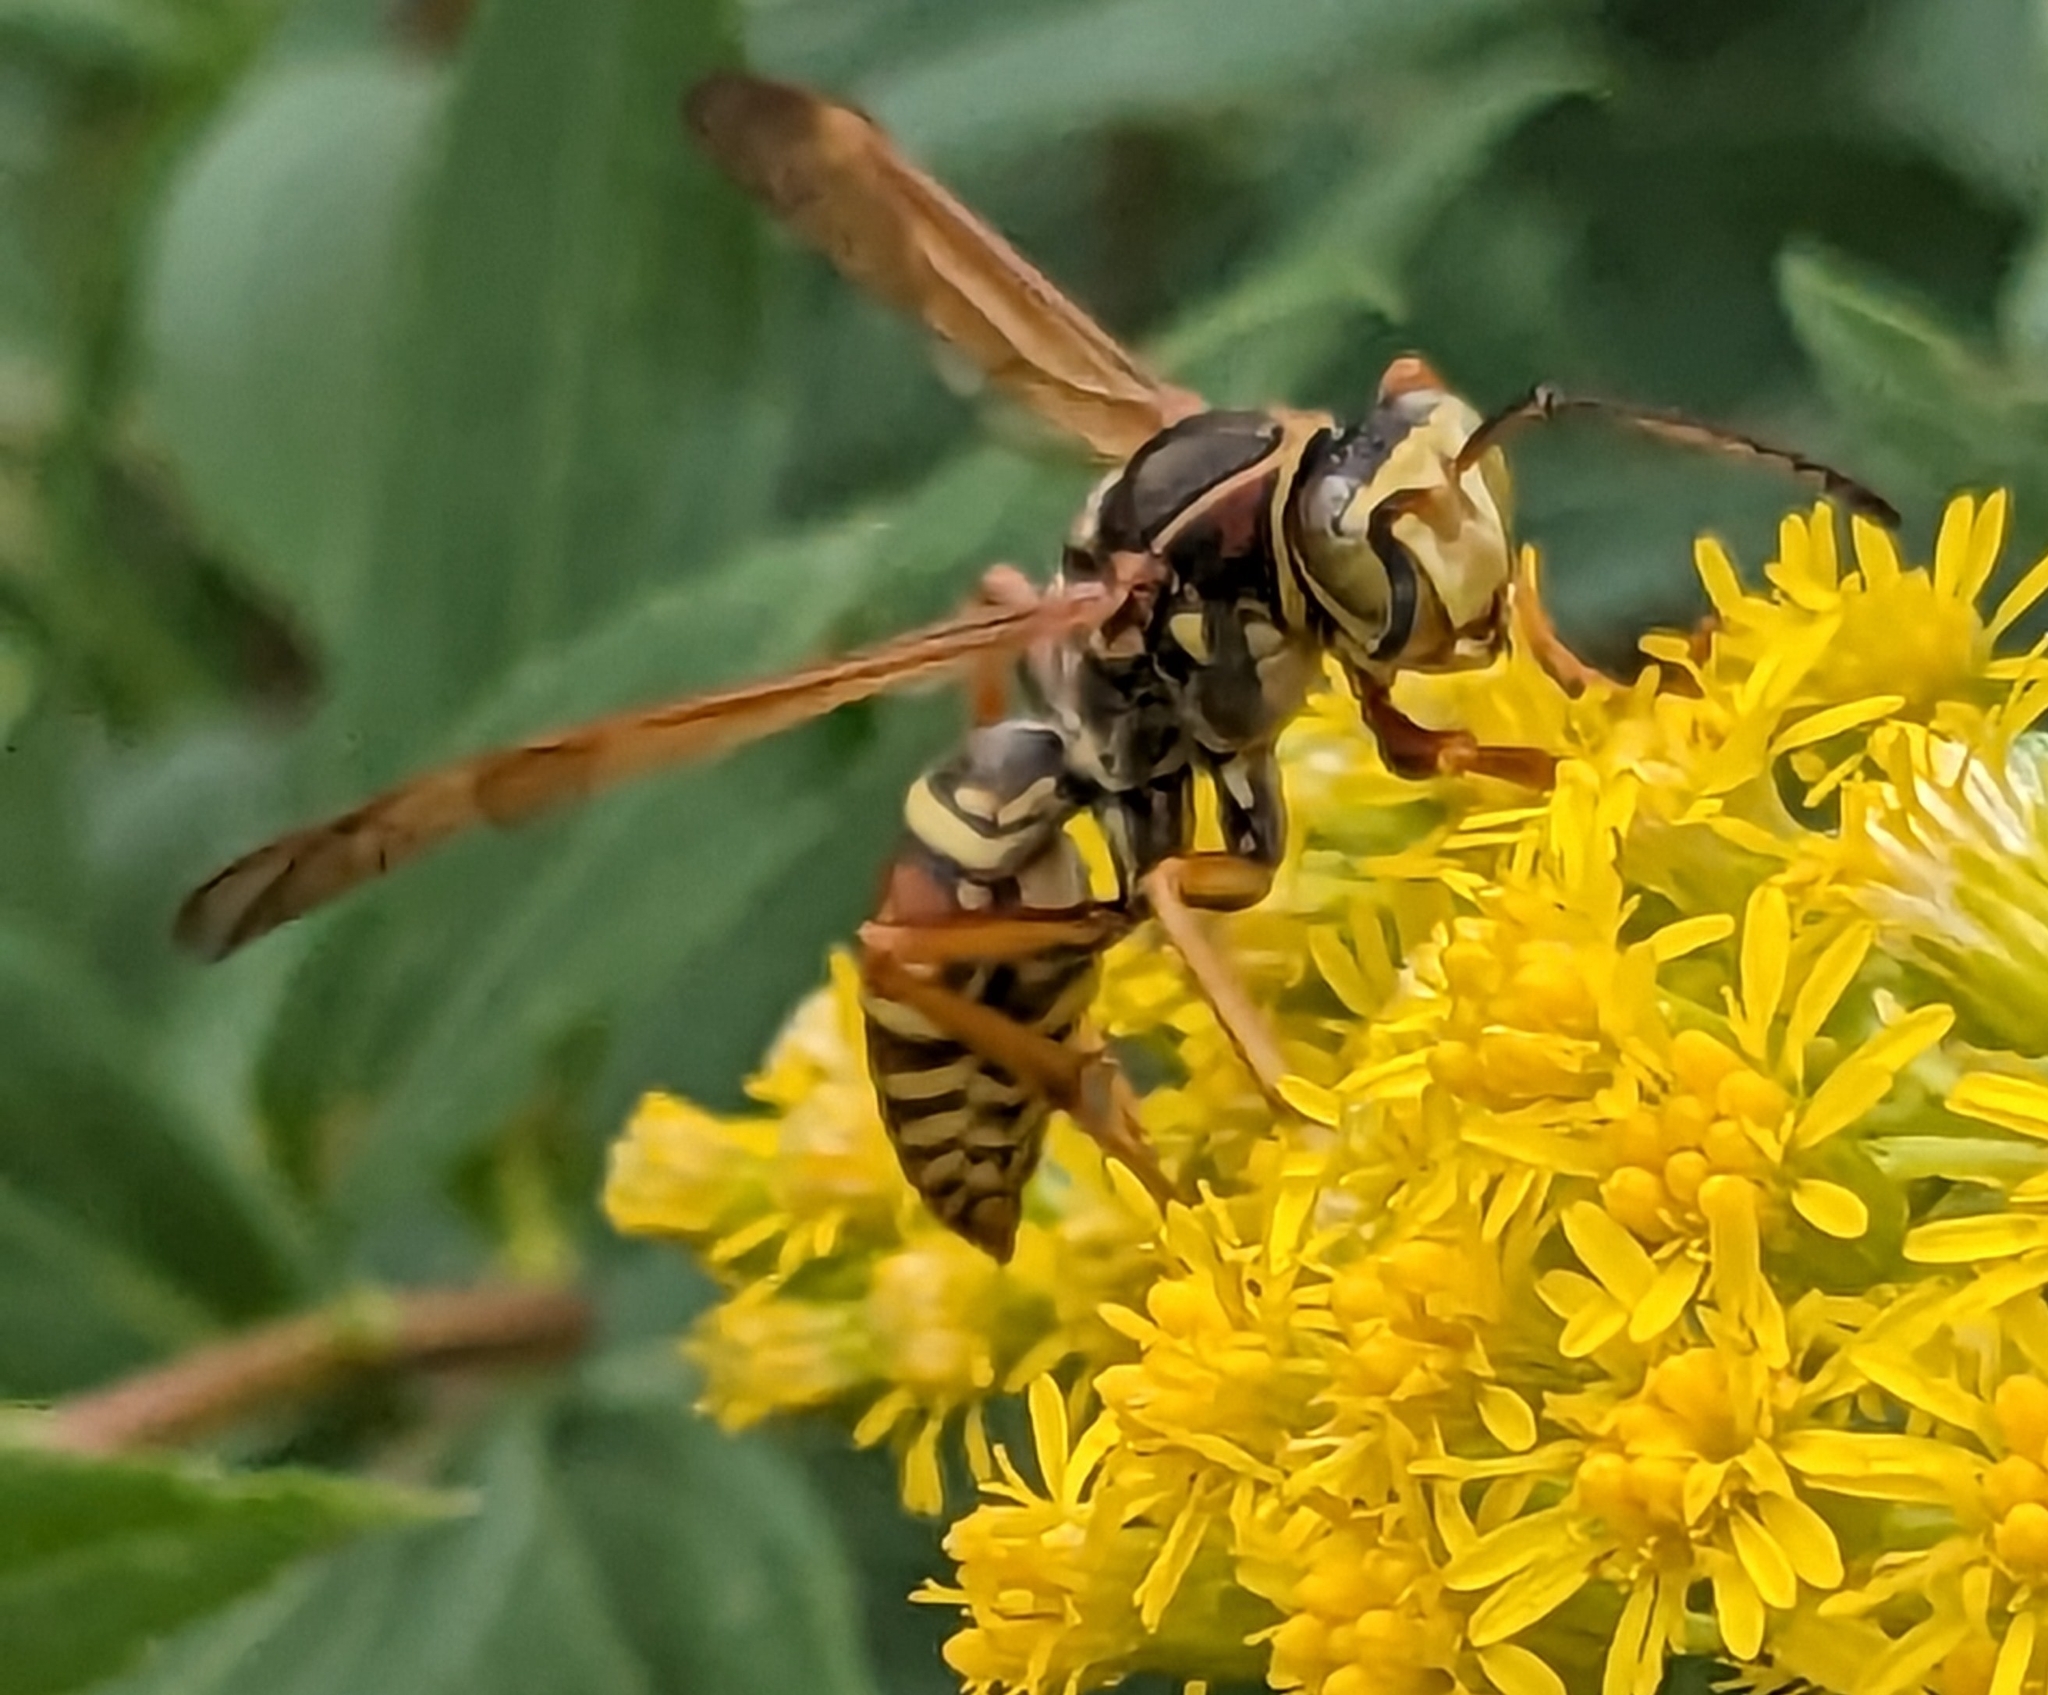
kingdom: Animalia
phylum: Arthropoda
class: Insecta
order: Hymenoptera
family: Eumenidae
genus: Polistes
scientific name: Polistes fuscatus
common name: Dark paper wasp
